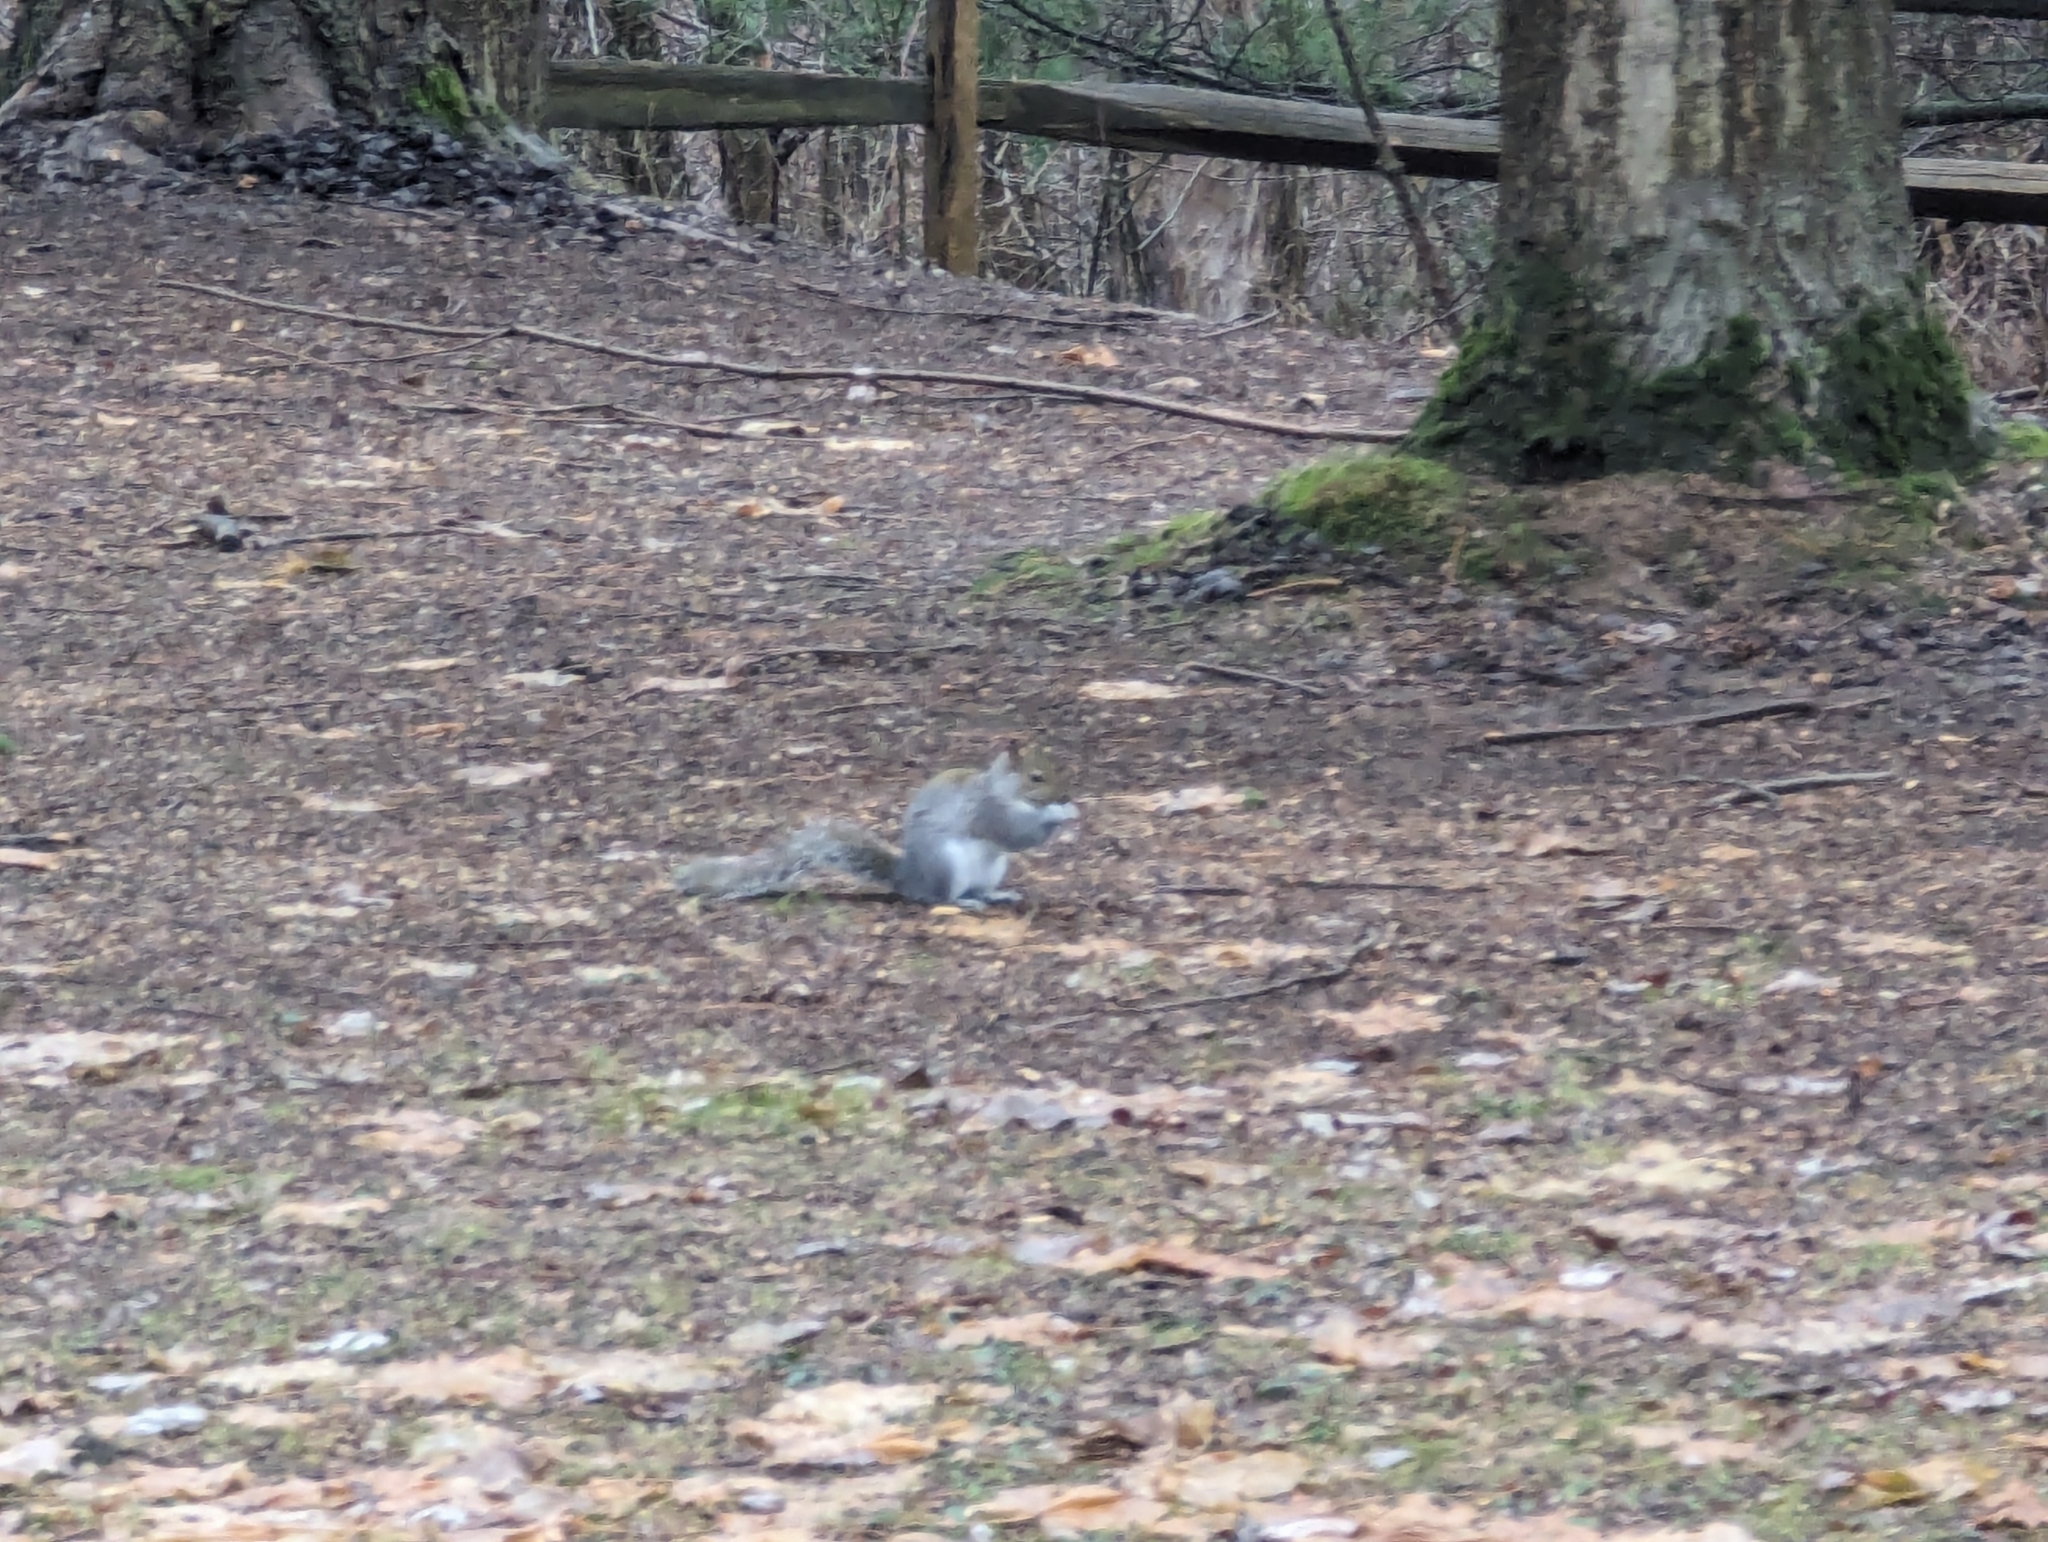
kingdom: Animalia
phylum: Chordata
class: Mammalia
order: Rodentia
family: Sciuridae
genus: Sciurus
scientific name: Sciurus carolinensis
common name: Eastern gray squirrel
